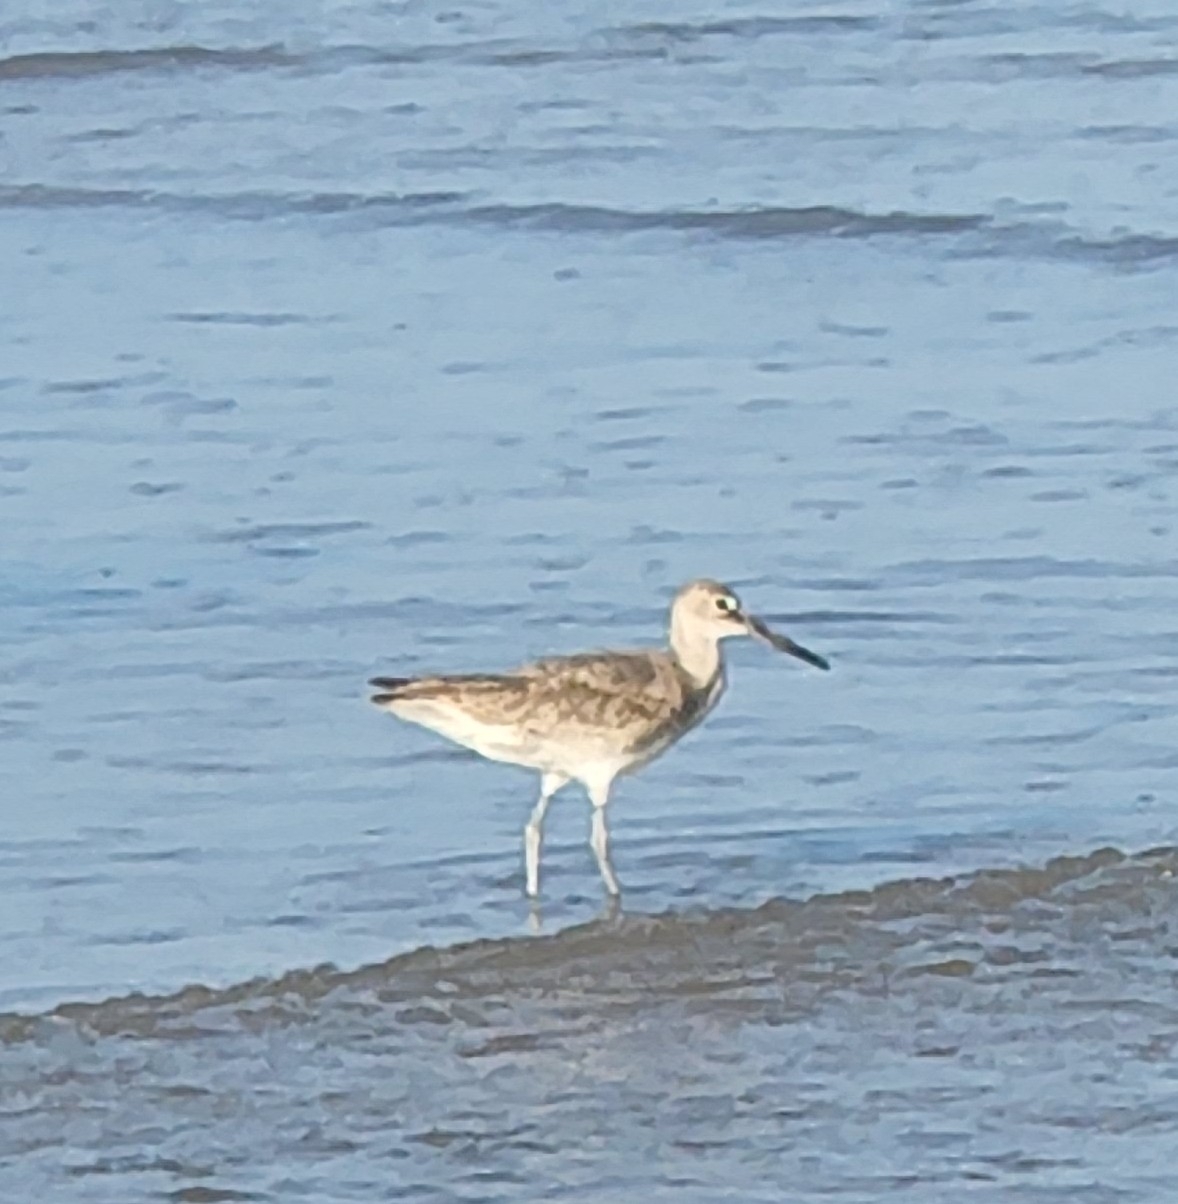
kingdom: Animalia
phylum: Chordata
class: Aves
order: Charadriiformes
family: Scolopacidae
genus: Tringa
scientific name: Tringa semipalmata
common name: Willet
